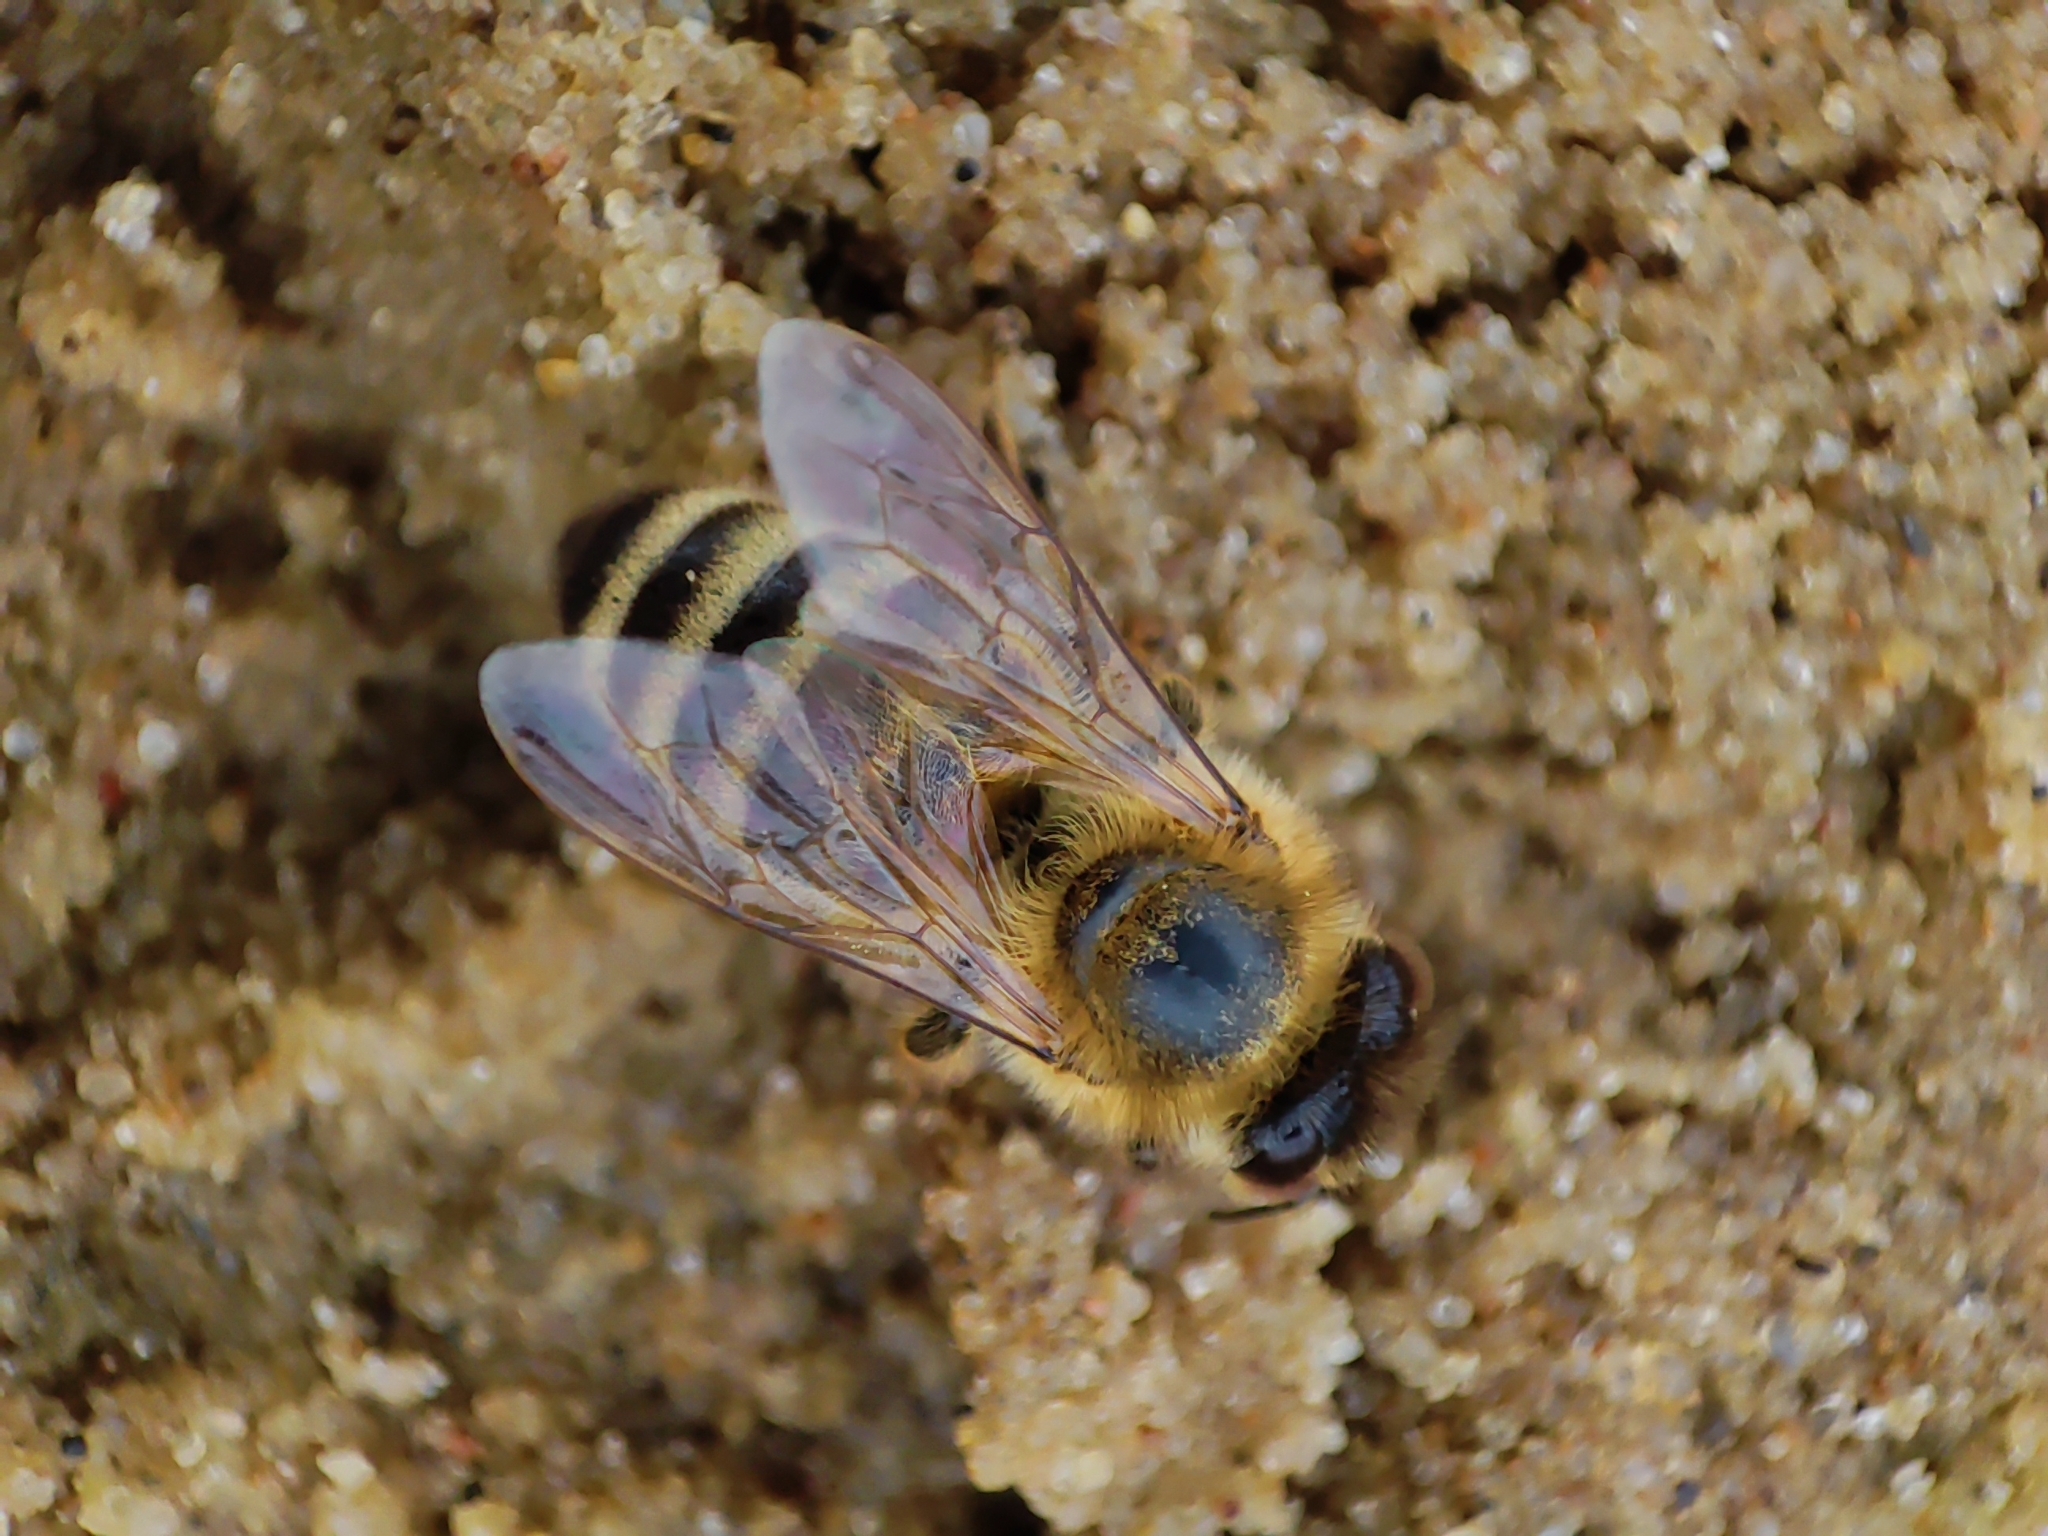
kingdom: Animalia
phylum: Arthropoda
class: Insecta
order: Hymenoptera
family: Apidae
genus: Apis
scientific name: Apis mellifera
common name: Honey bee
